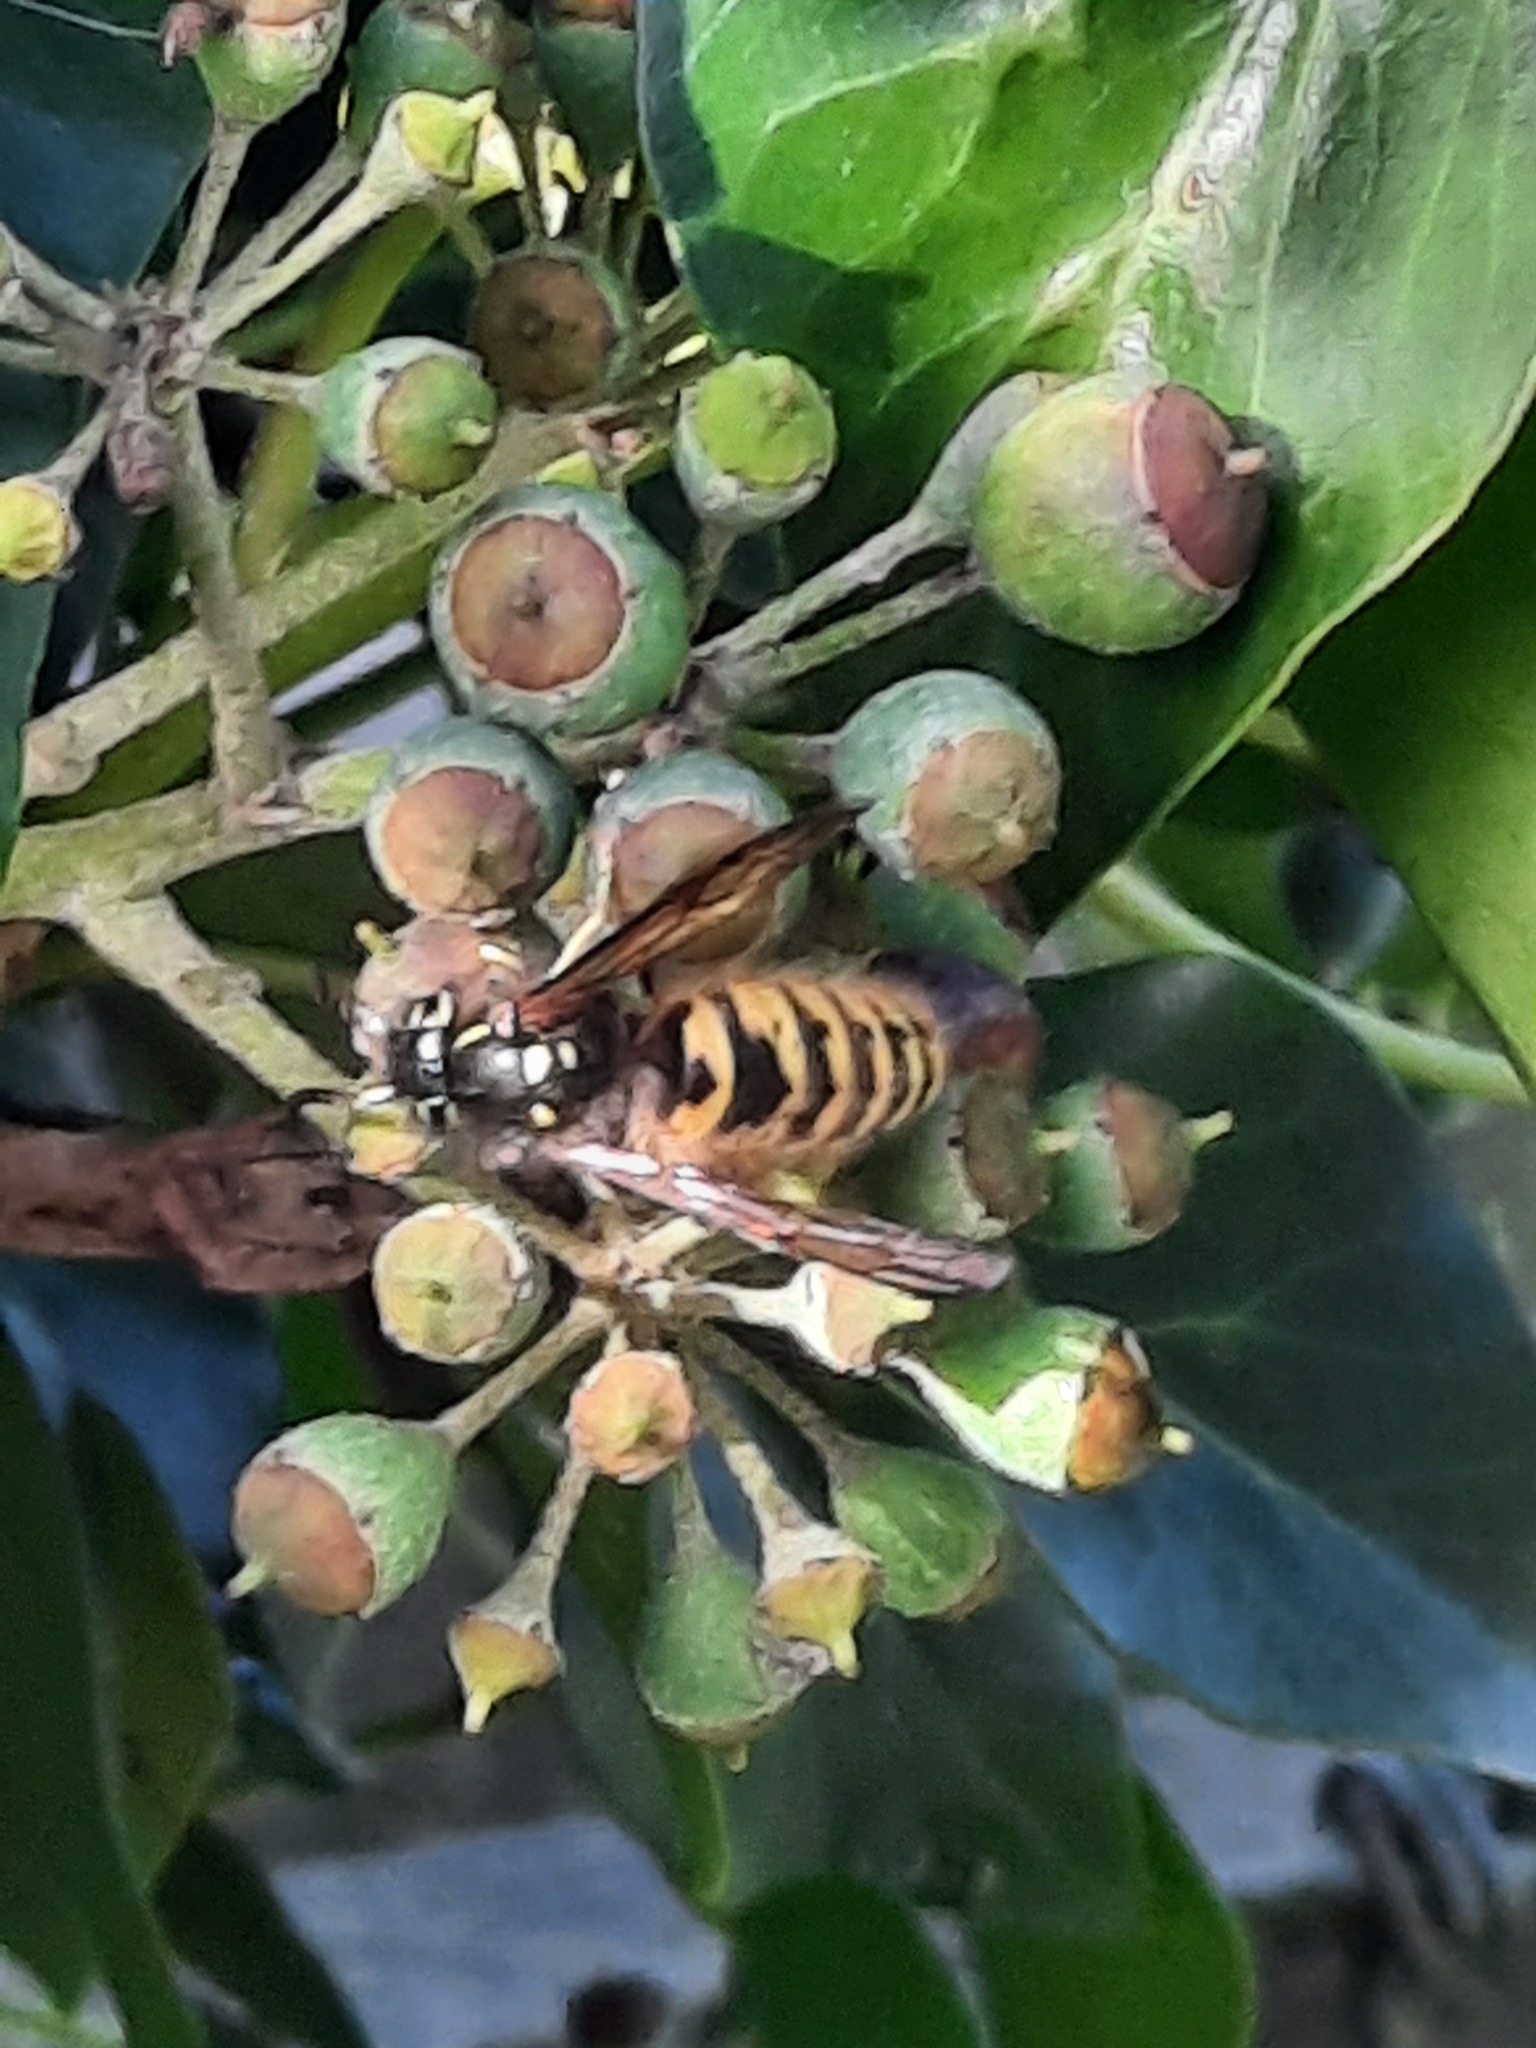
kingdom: Animalia
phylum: Arthropoda
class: Insecta
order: Hymenoptera
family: Vespidae
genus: Vespula
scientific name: Vespula vulgaris
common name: Common wasp
